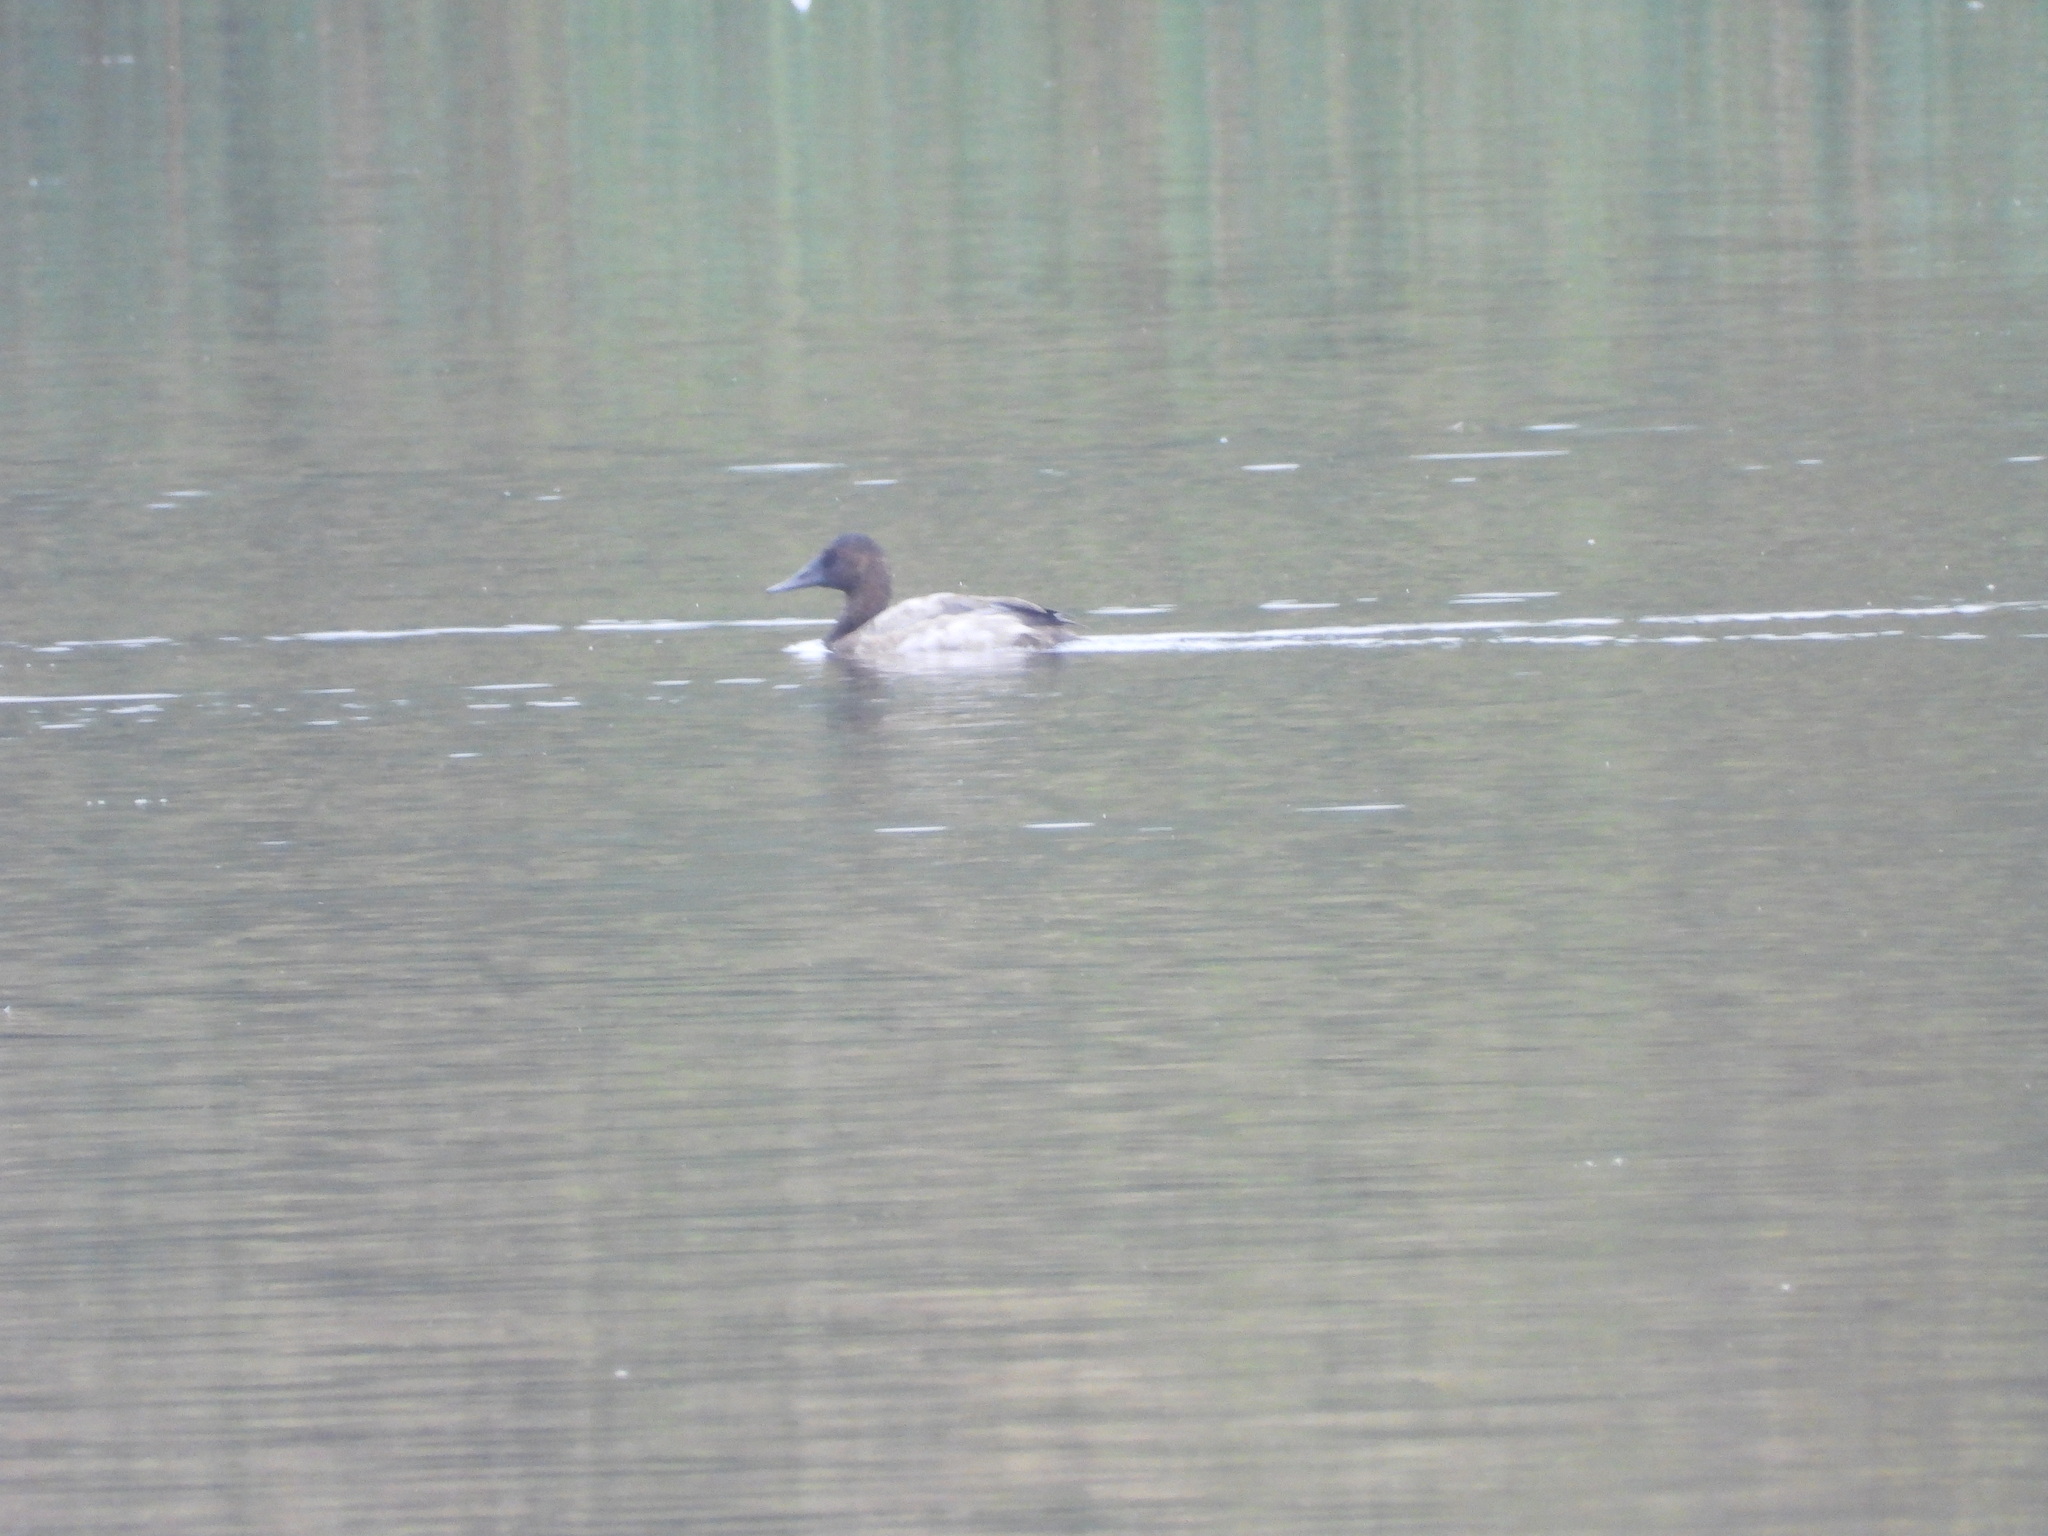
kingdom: Animalia
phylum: Chordata
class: Aves
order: Anseriformes
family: Anatidae
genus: Aythya
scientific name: Aythya valisineria
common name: Canvasback
